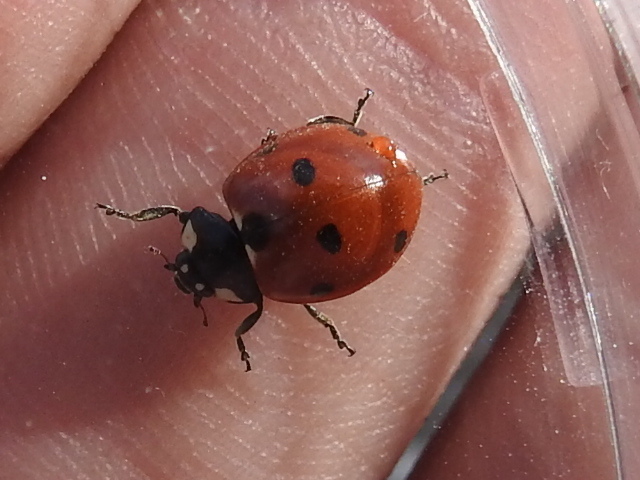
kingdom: Animalia
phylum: Arthropoda
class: Insecta
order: Coleoptera
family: Coccinellidae
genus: Coccinella
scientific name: Coccinella septempunctata
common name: Sevenspotted lady beetle
